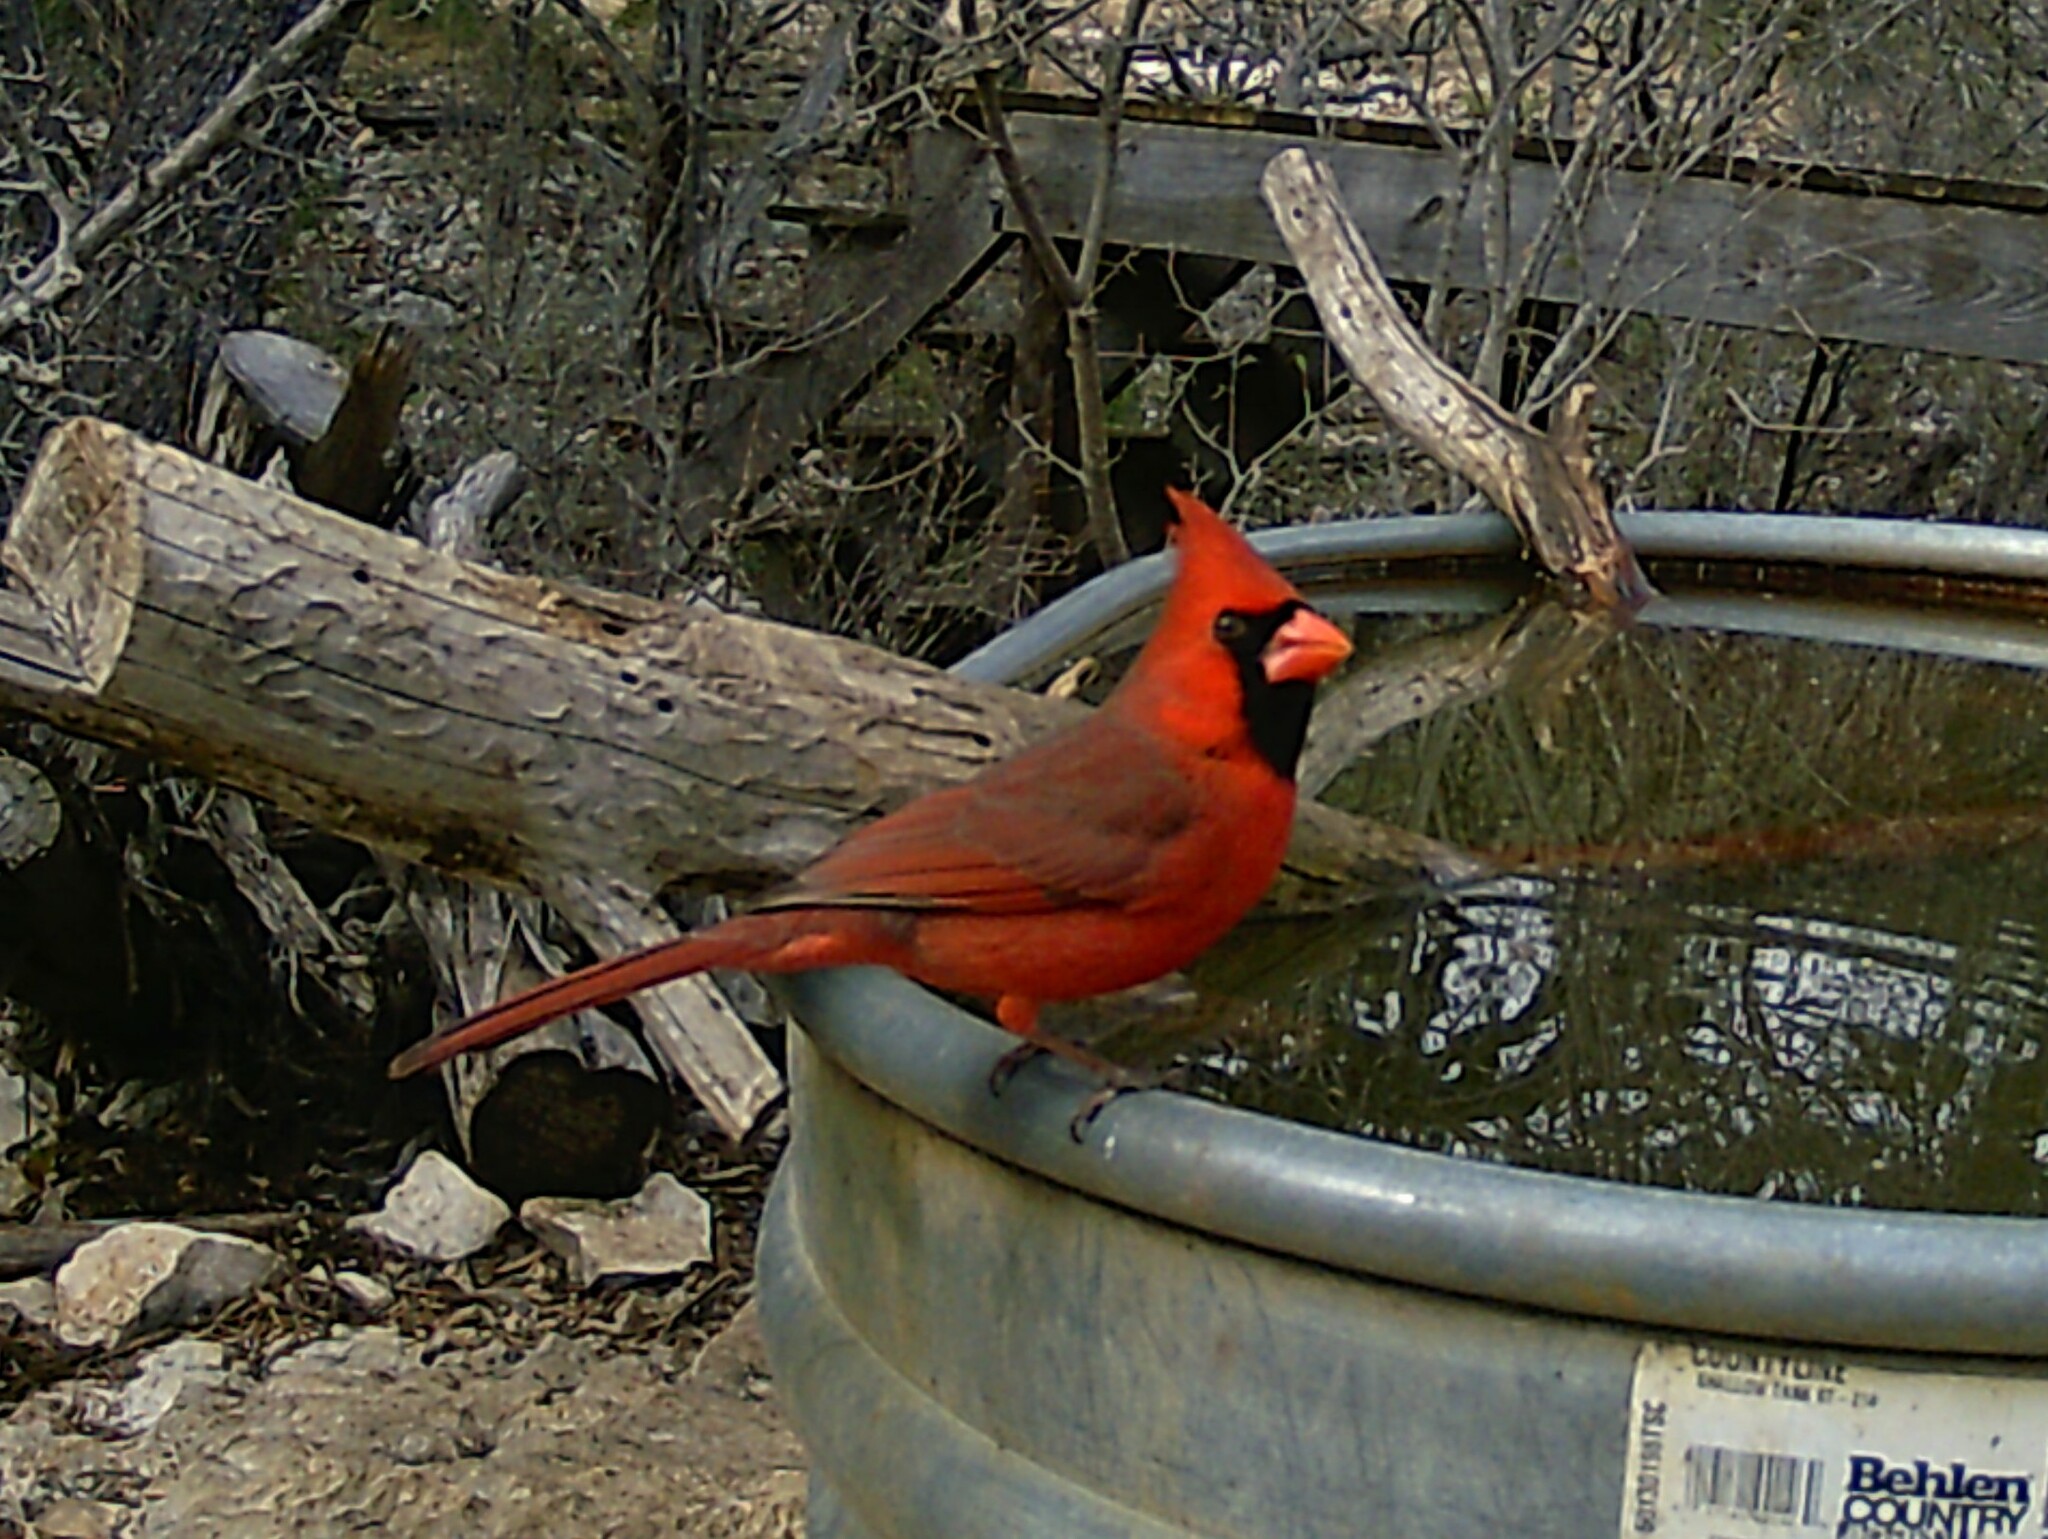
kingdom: Animalia
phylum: Chordata
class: Aves
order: Passeriformes
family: Cardinalidae
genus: Cardinalis
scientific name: Cardinalis cardinalis
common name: Northern cardinal
